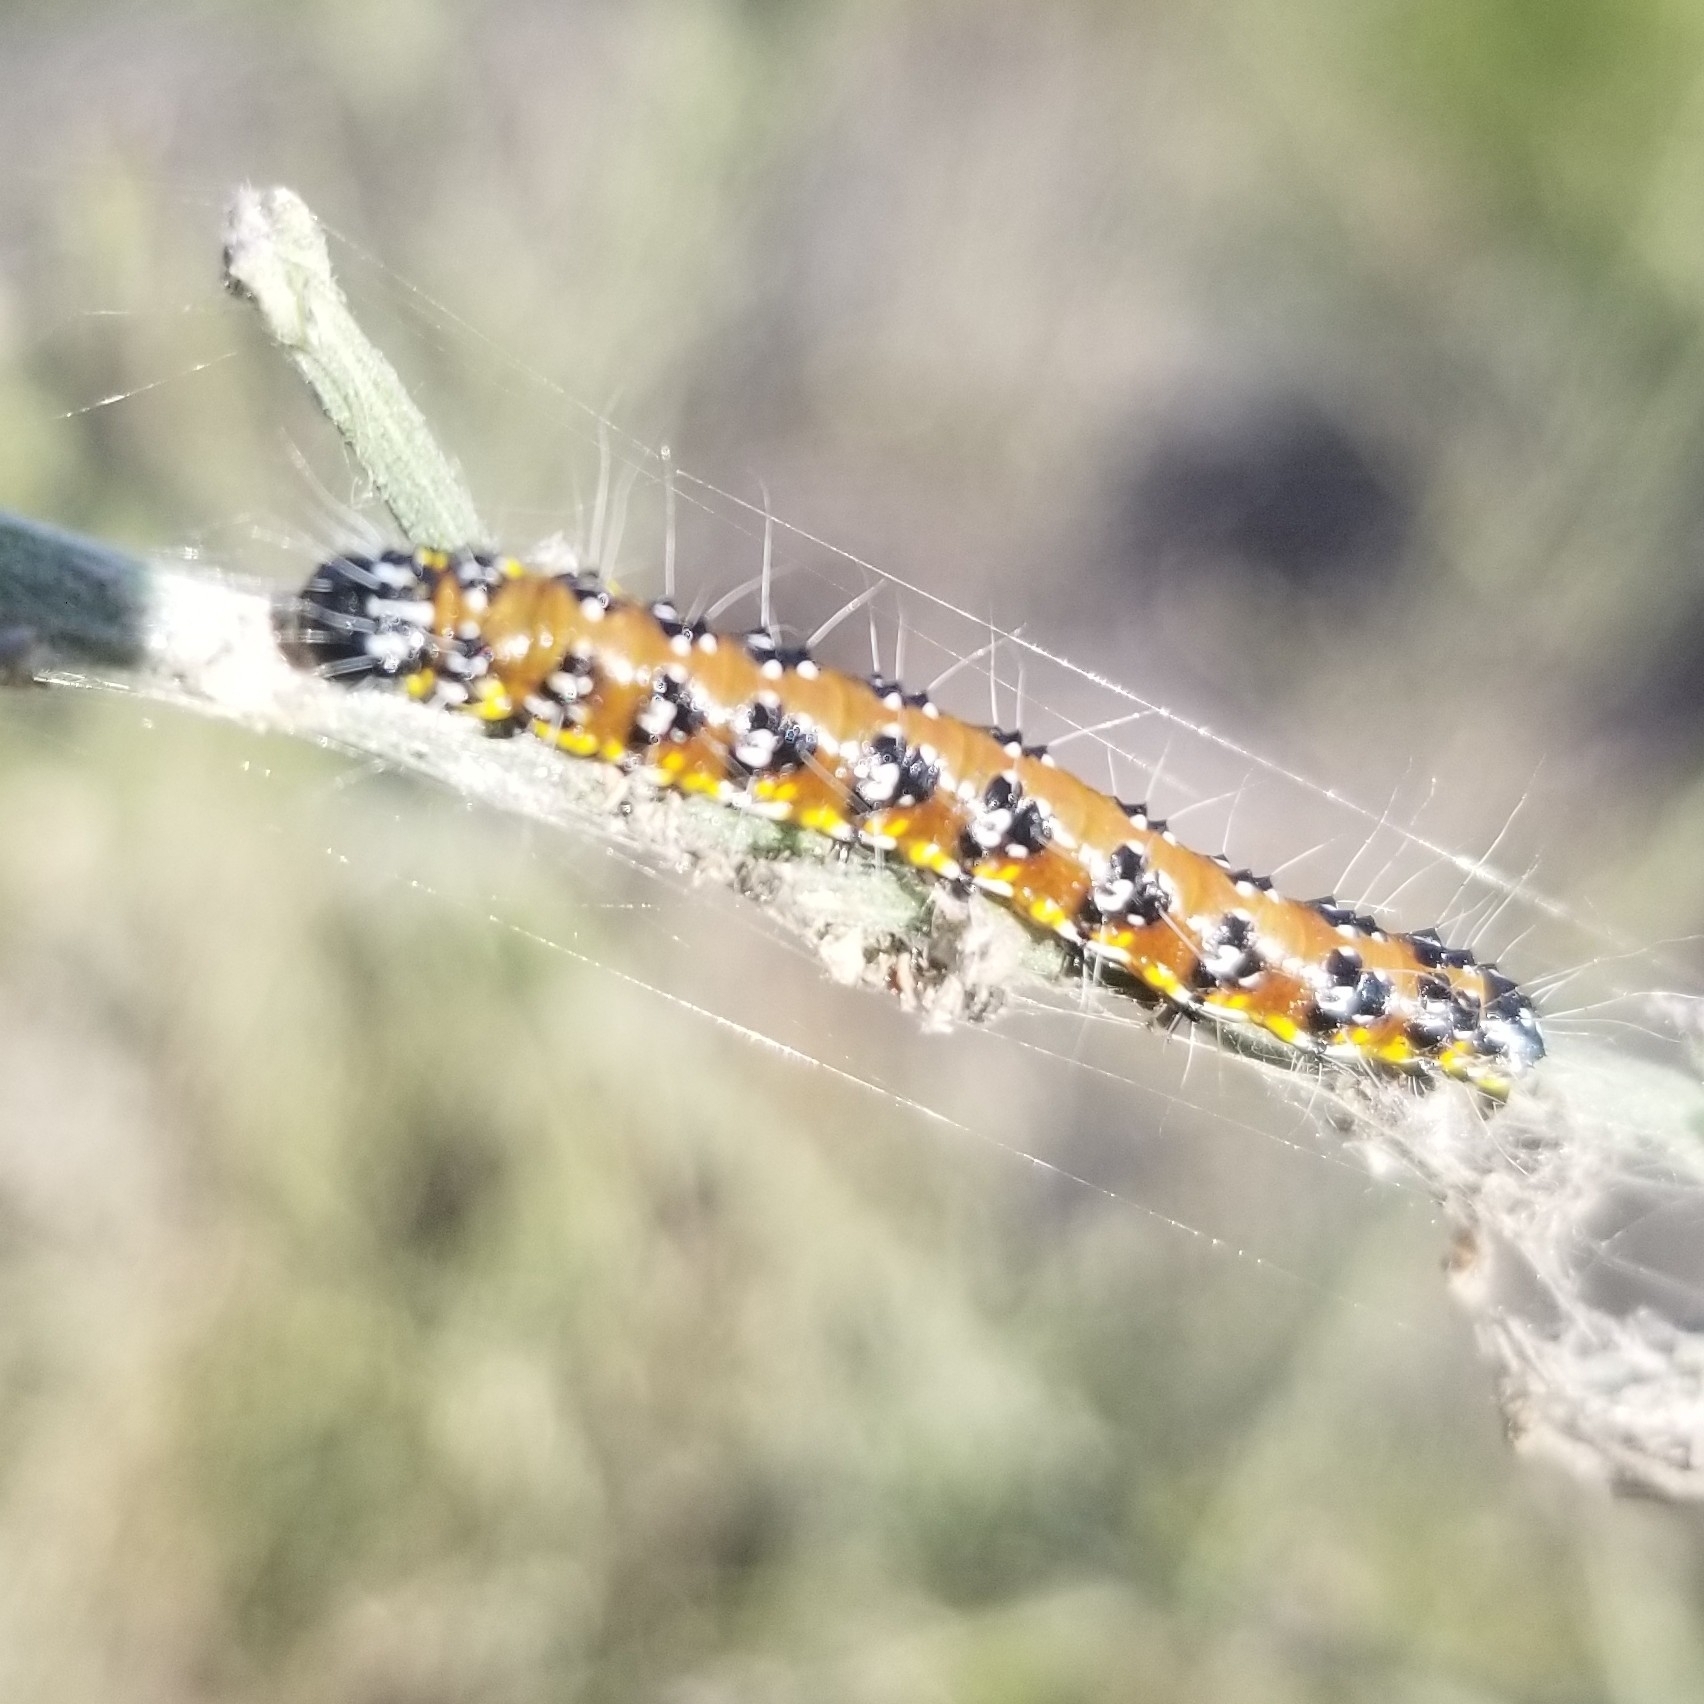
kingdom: Animalia
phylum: Arthropoda
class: Insecta
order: Lepidoptera
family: Crambidae
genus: Uresiphita
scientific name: Uresiphita reversalis
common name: Genista broom moth
